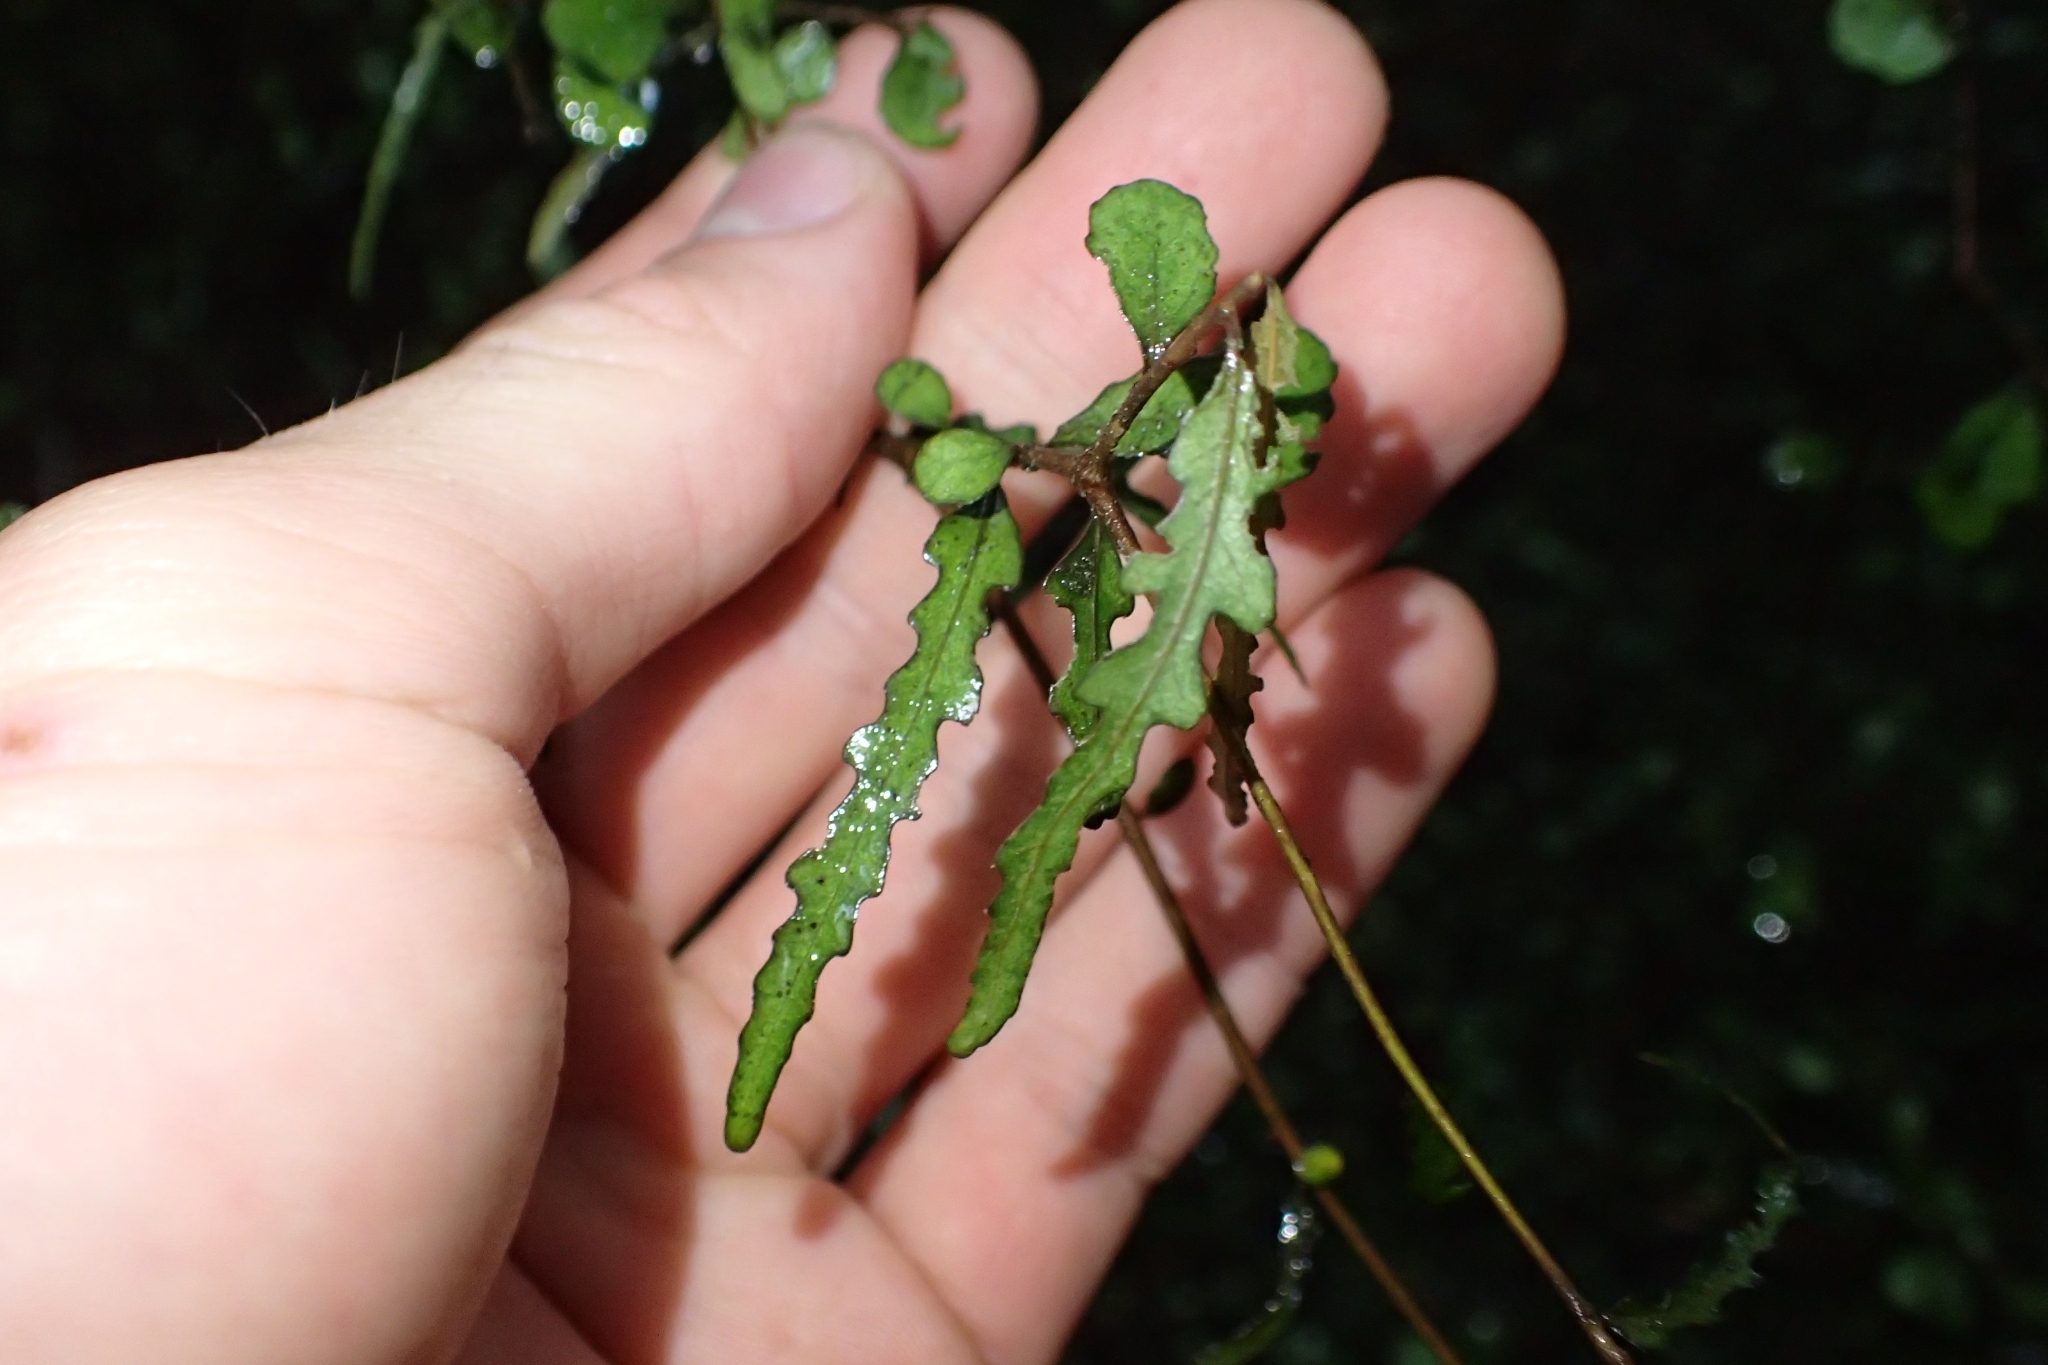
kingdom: Plantae
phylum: Tracheophyta
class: Magnoliopsida
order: Oxalidales
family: Elaeocarpaceae
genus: Elaeocarpus
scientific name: Elaeocarpus hookerianus
